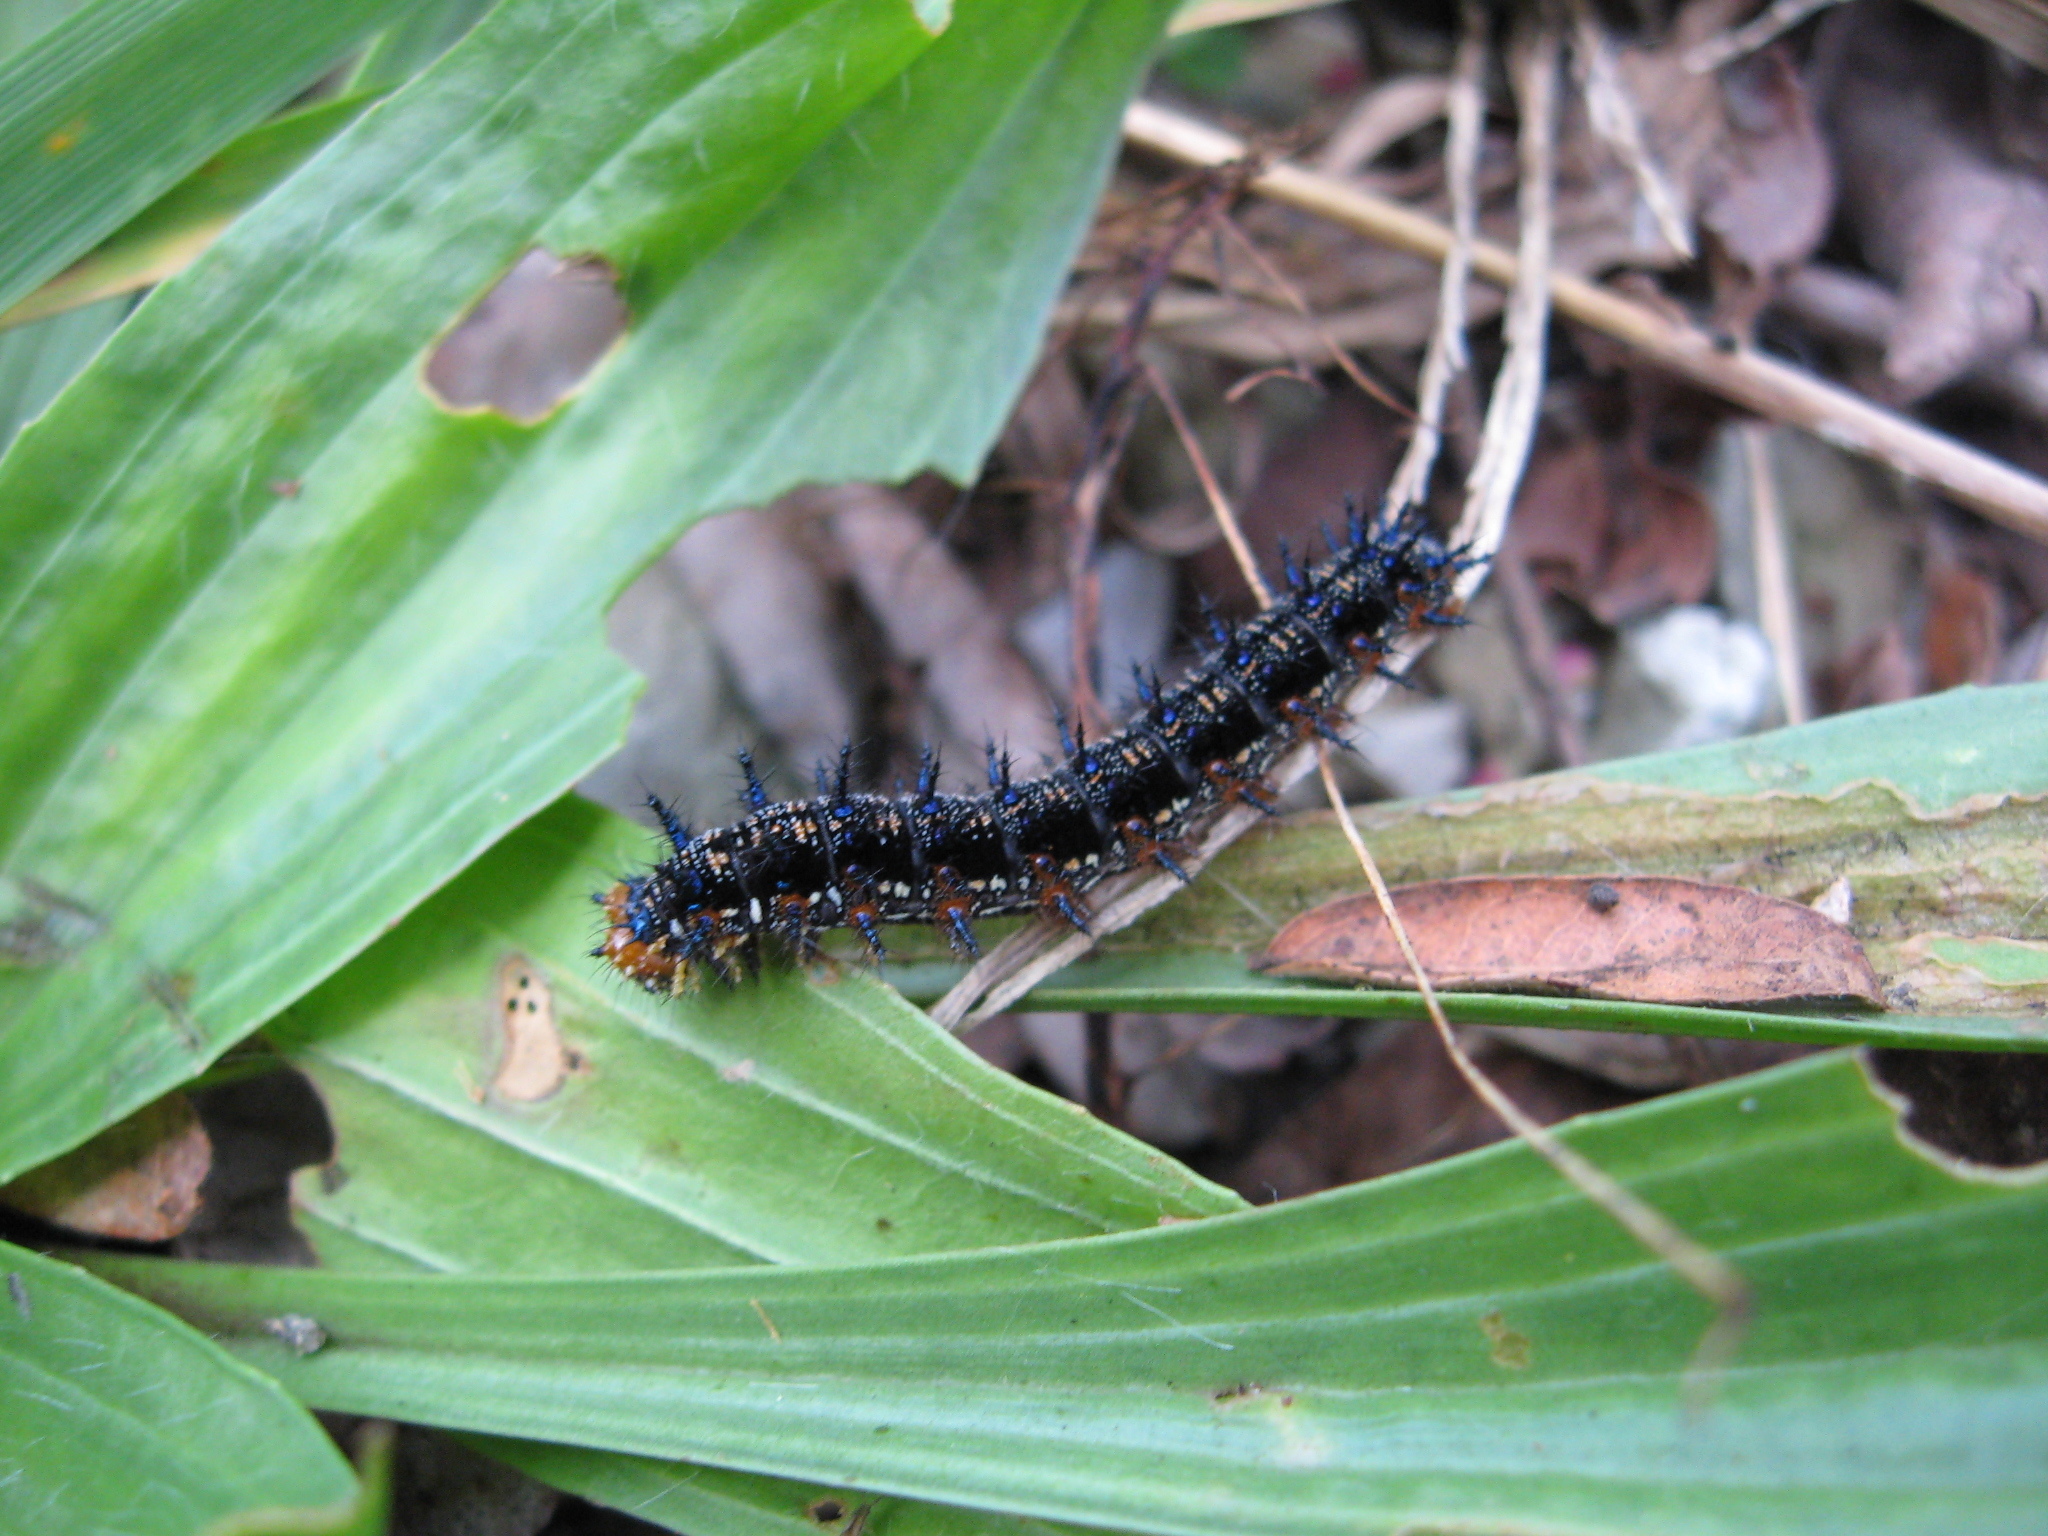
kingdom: Animalia
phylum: Arthropoda
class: Insecta
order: Lepidoptera
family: Nymphalidae
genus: Junonia
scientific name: Junonia coenia
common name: Common buckeye
